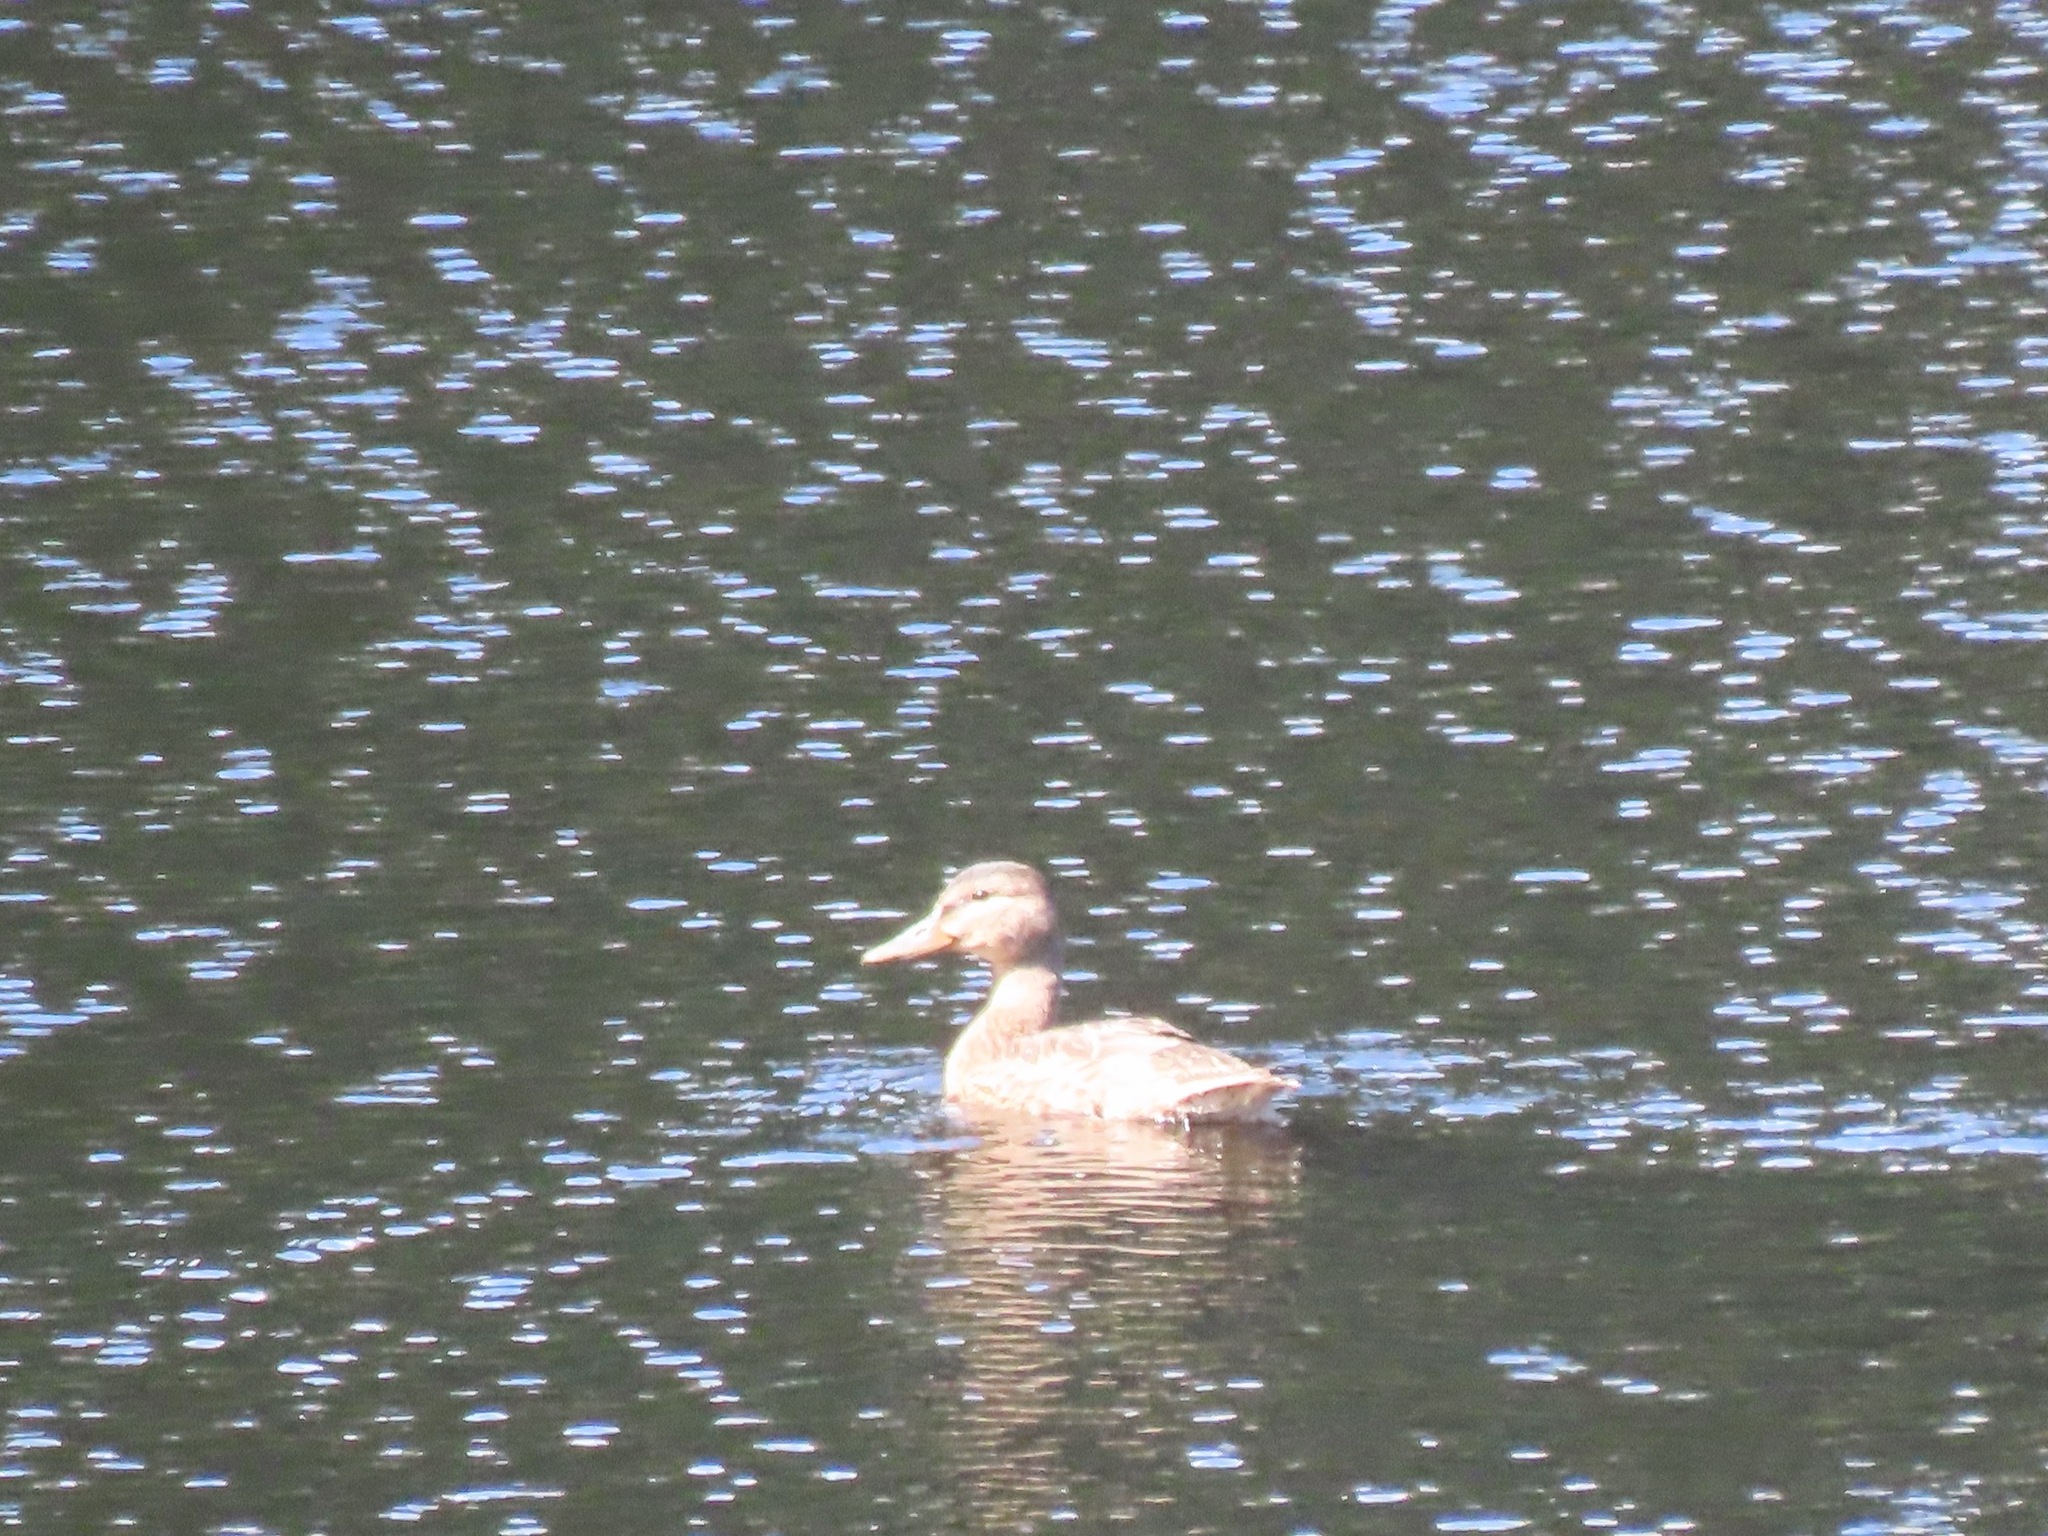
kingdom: Animalia
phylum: Chordata
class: Aves
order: Anseriformes
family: Anatidae
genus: Anas
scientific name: Anas platyrhynchos
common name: Mallard
